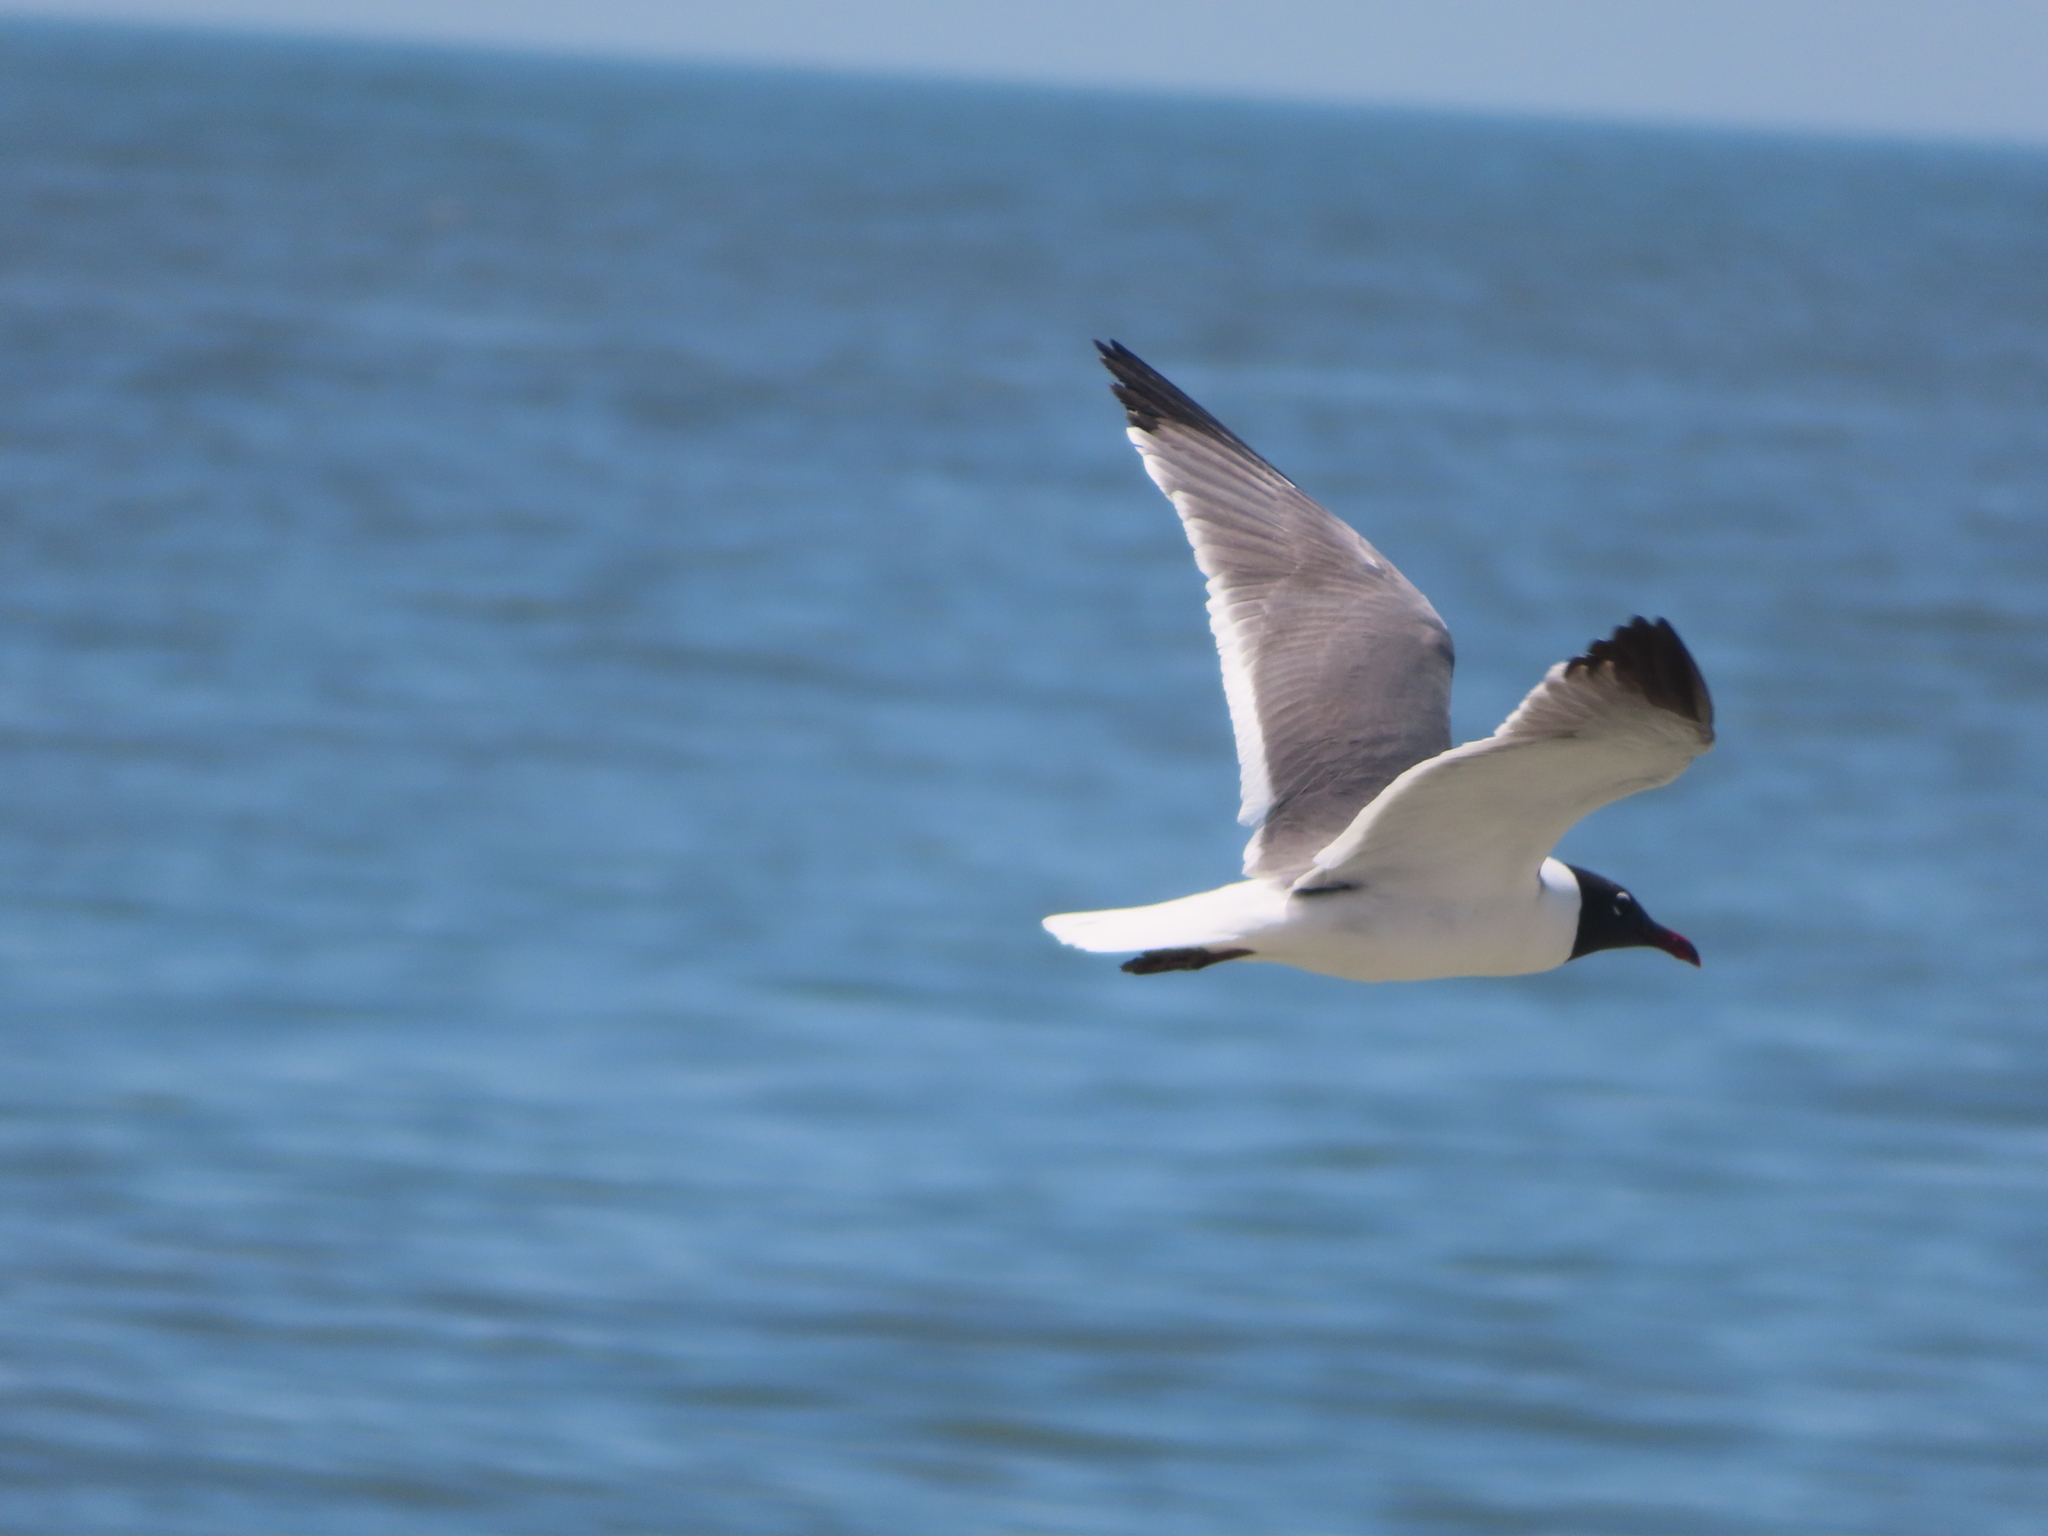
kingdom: Animalia
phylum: Chordata
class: Aves
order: Charadriiformes
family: Laridae
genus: Leucophaeus
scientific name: Leucophaeus atricilla
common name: Laughing gull
